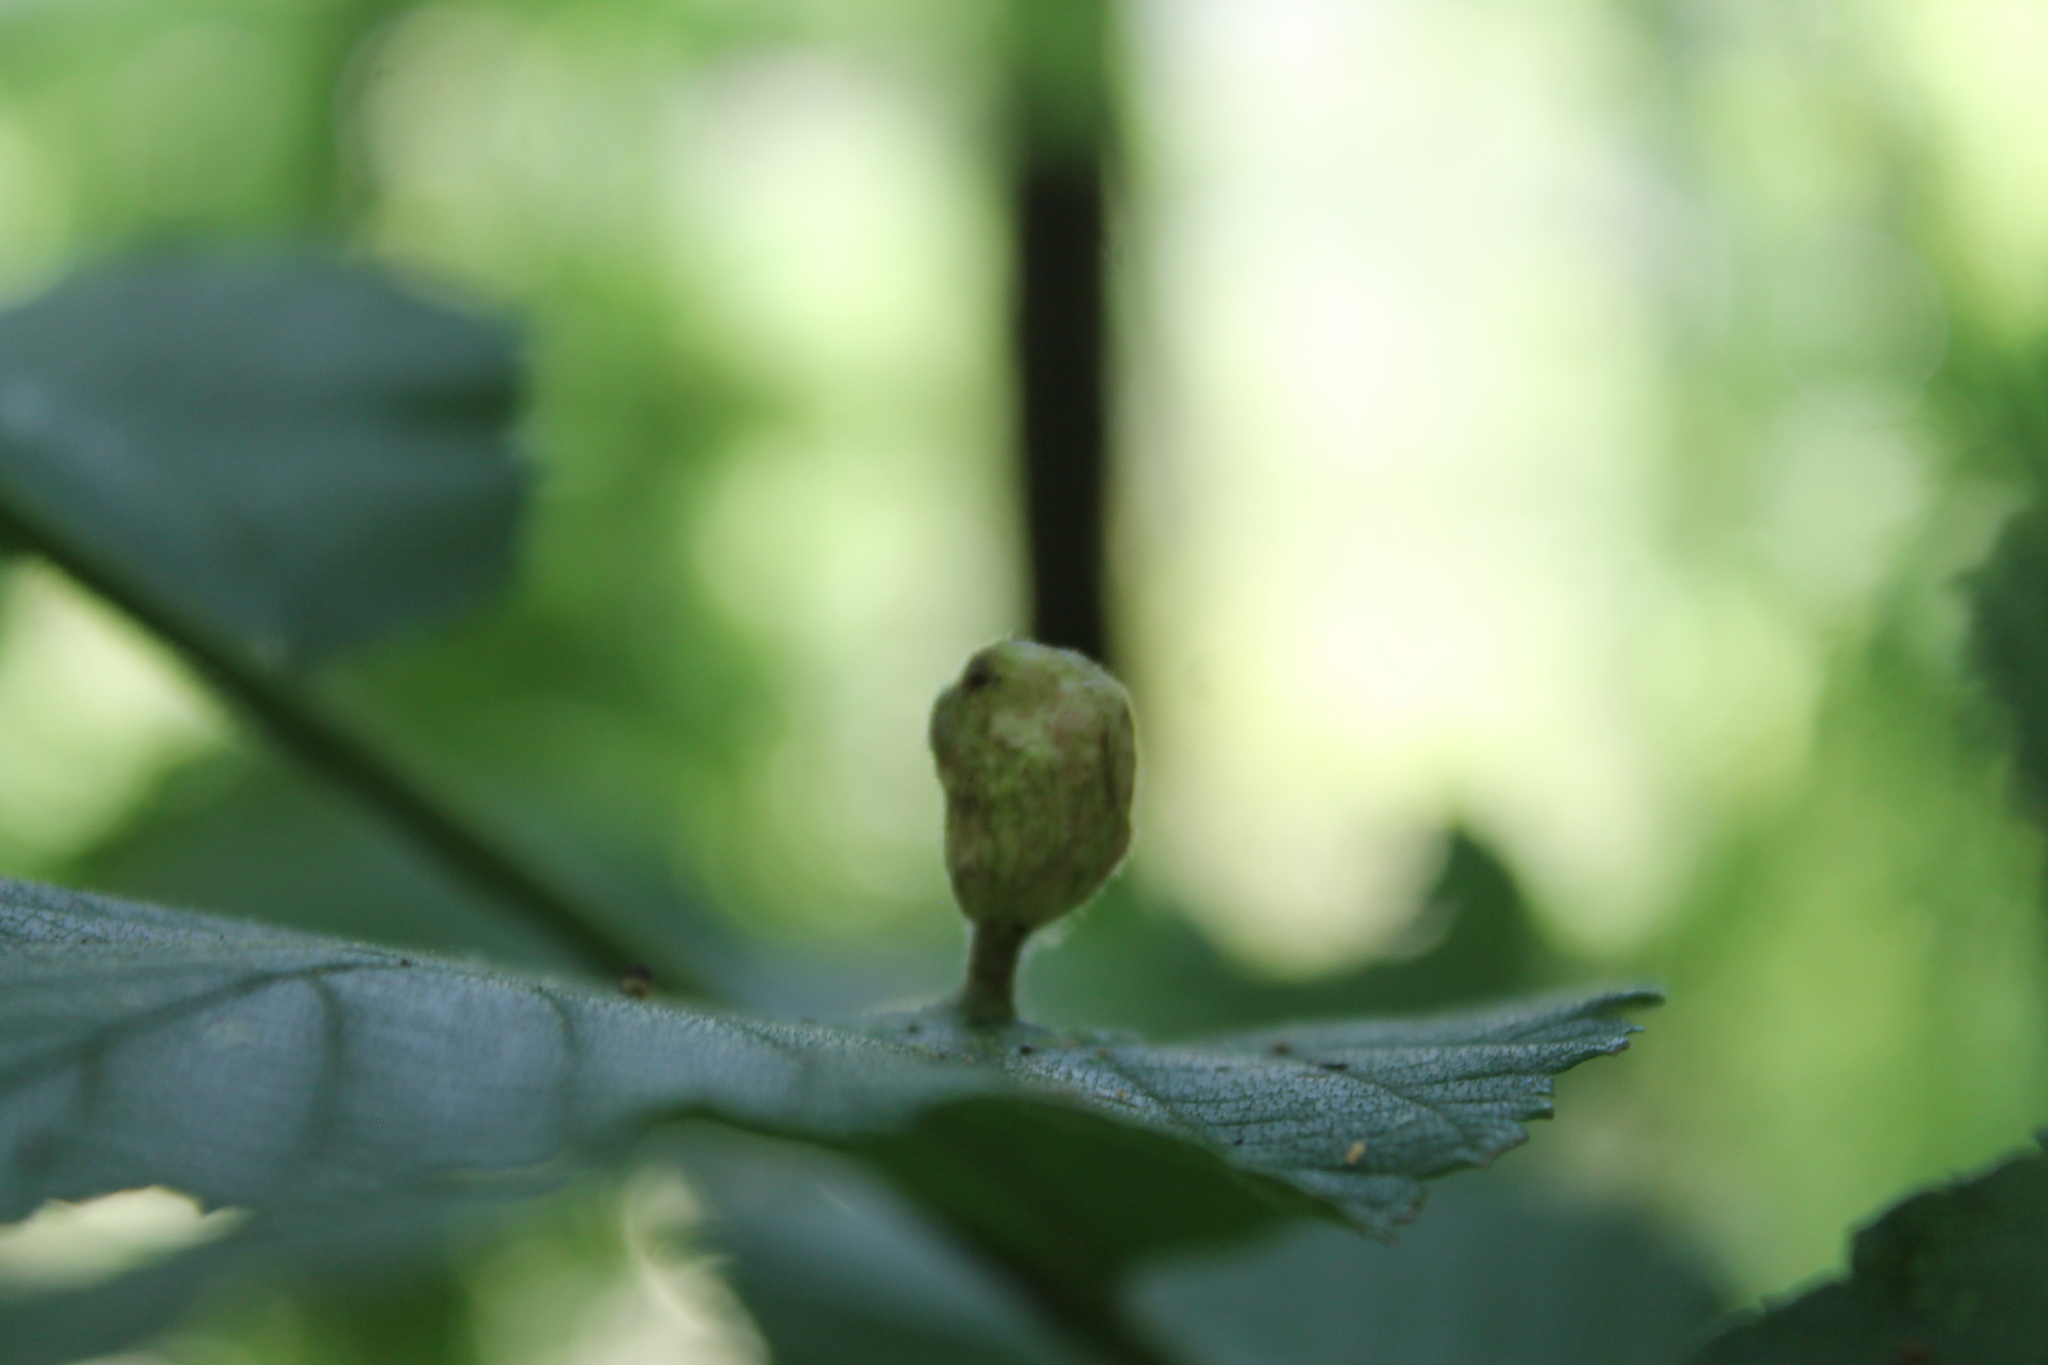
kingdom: Animalia
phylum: Arthropoda
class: Insecta
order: Hemiptera
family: Aphididae
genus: Tetraneura
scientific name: Tetraneura nigriabdominalis
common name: Aphid
